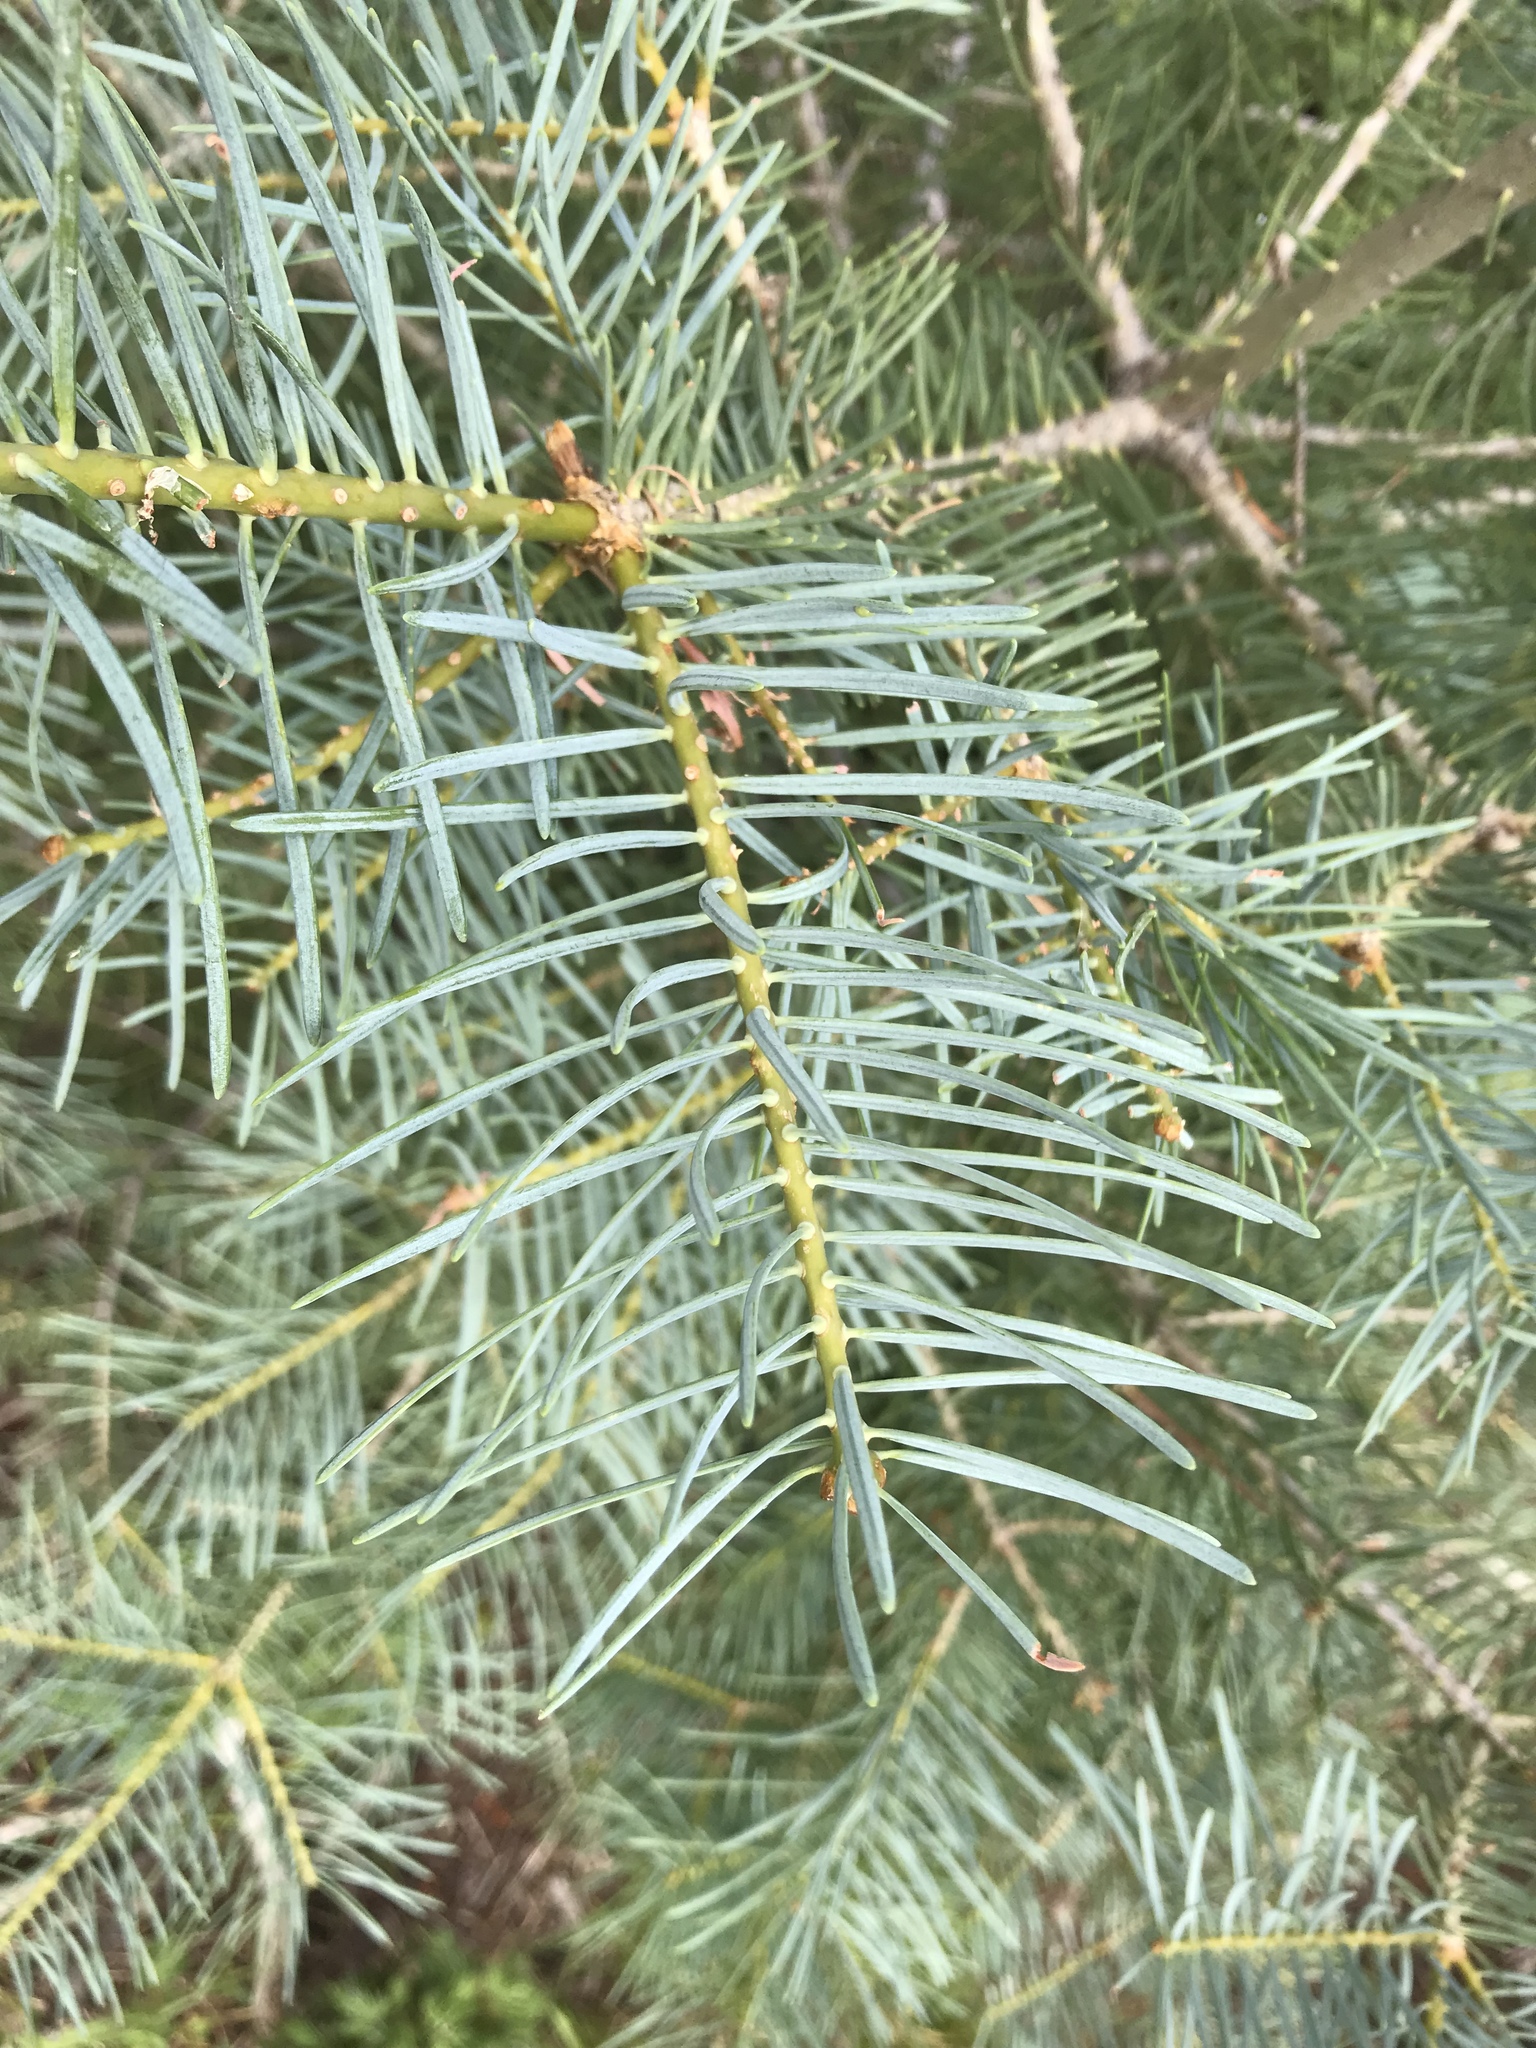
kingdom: Plantae
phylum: Tracheophyta
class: Pinopsida
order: Pinales
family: Pinaceae
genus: Abies
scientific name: Abies concolor
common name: Colorado fir
